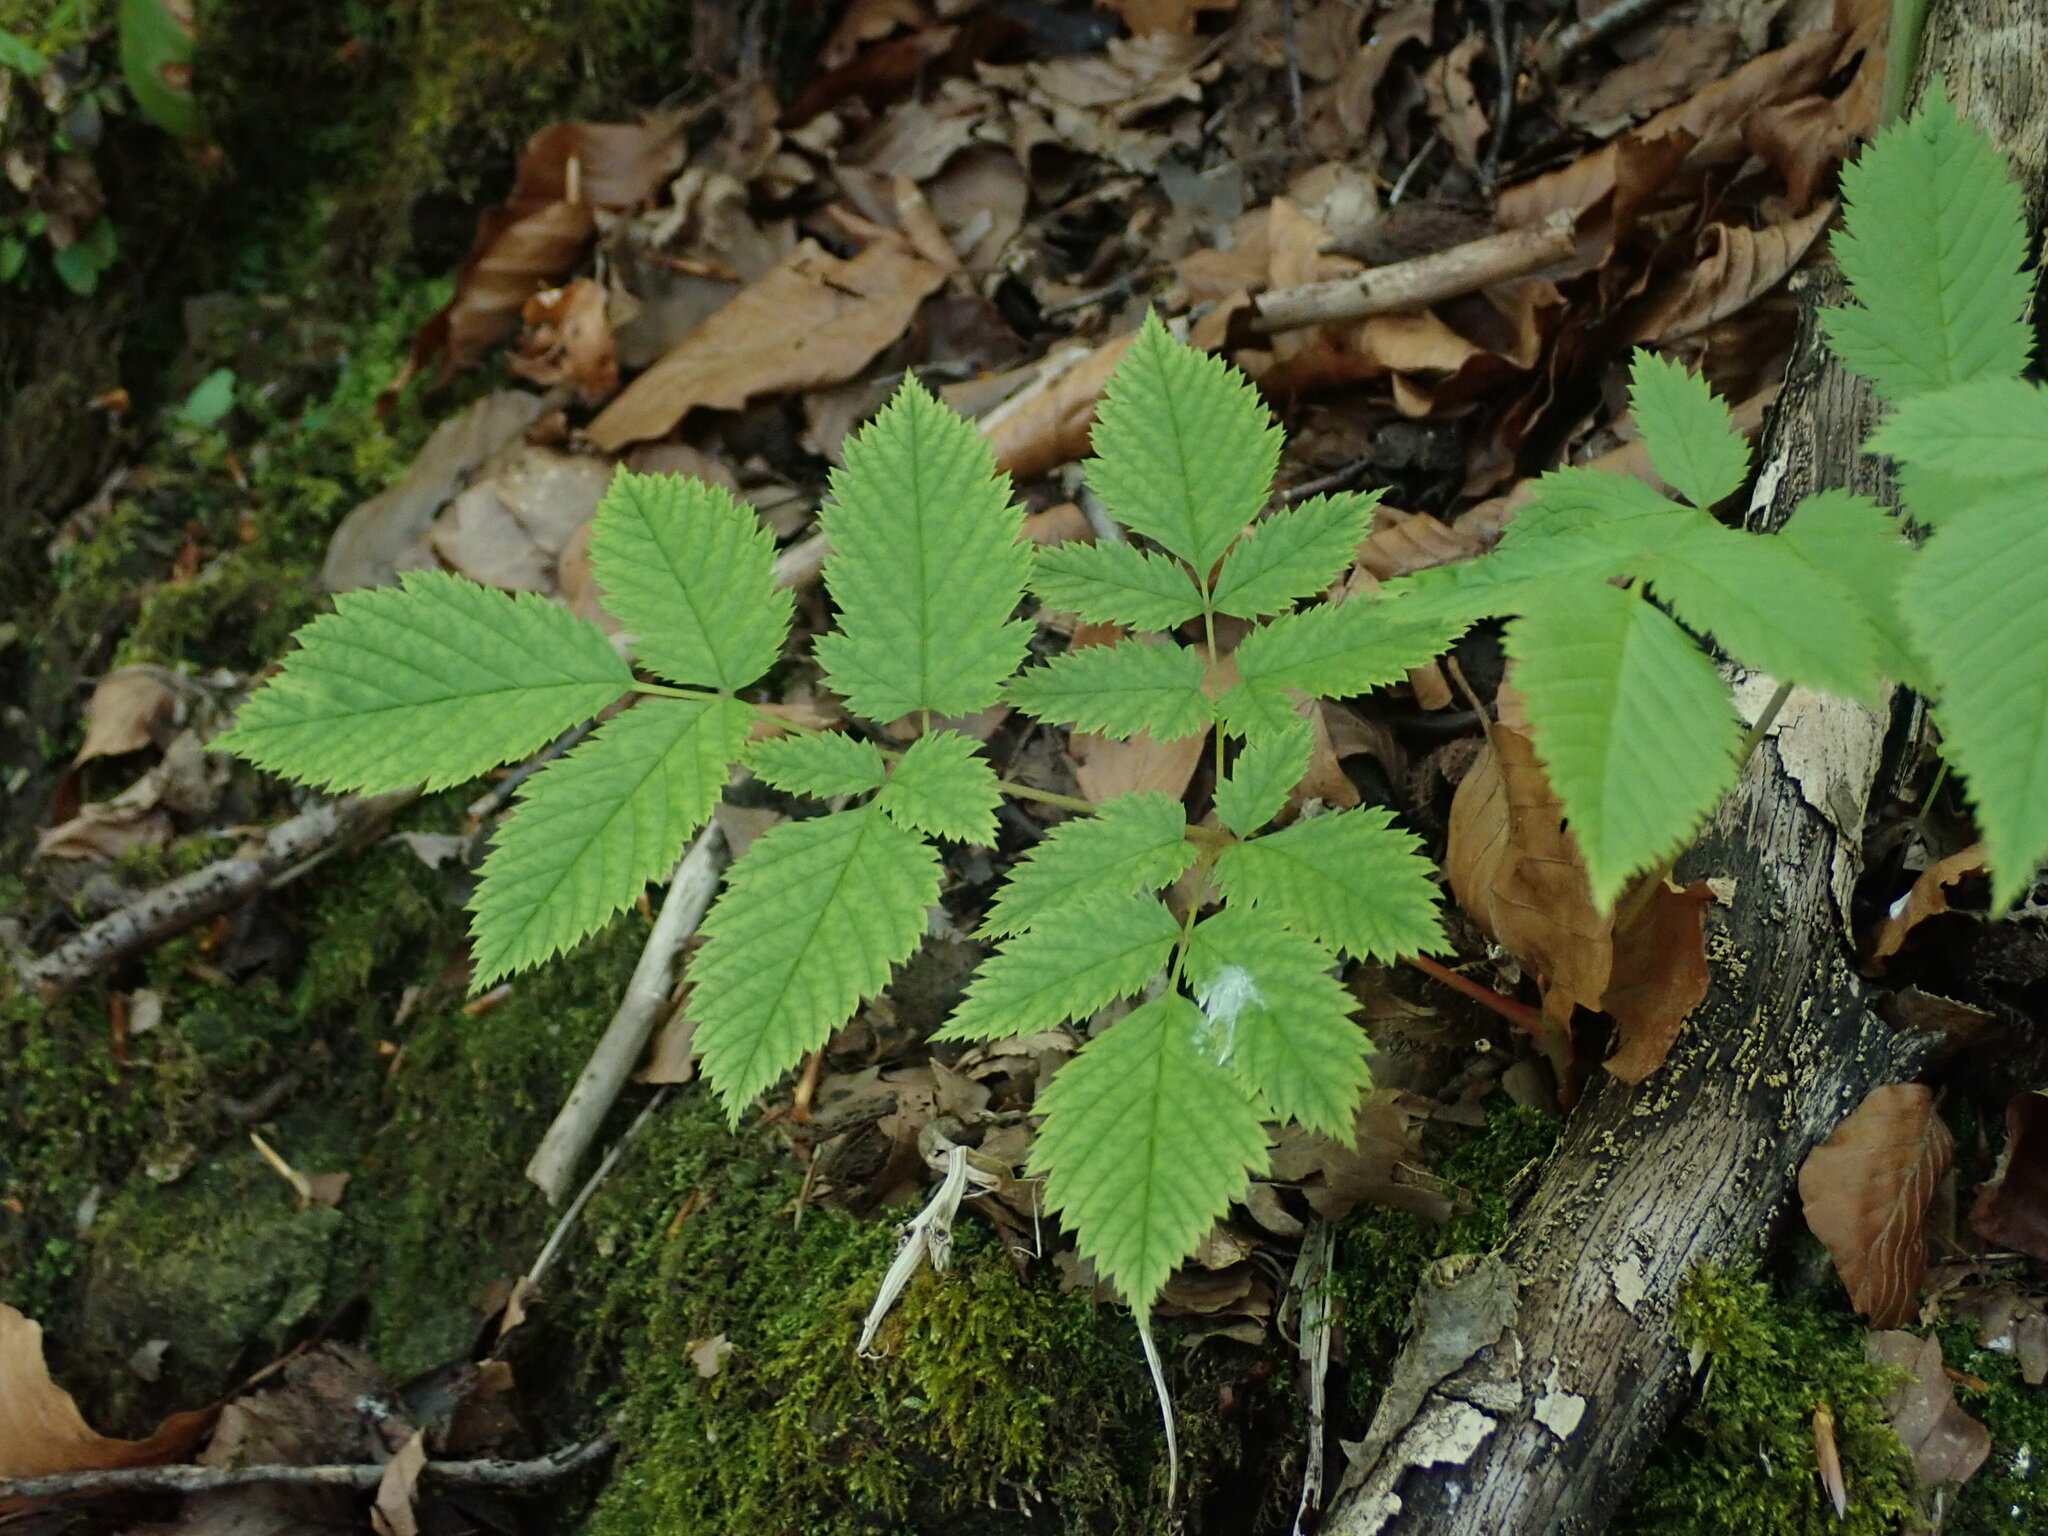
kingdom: Plantae
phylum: Tracheophyta
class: Magnoliopsida
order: Rosales
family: Rosaceae
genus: Aruncus
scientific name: Aruncus dioicus
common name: Buck's-beard
